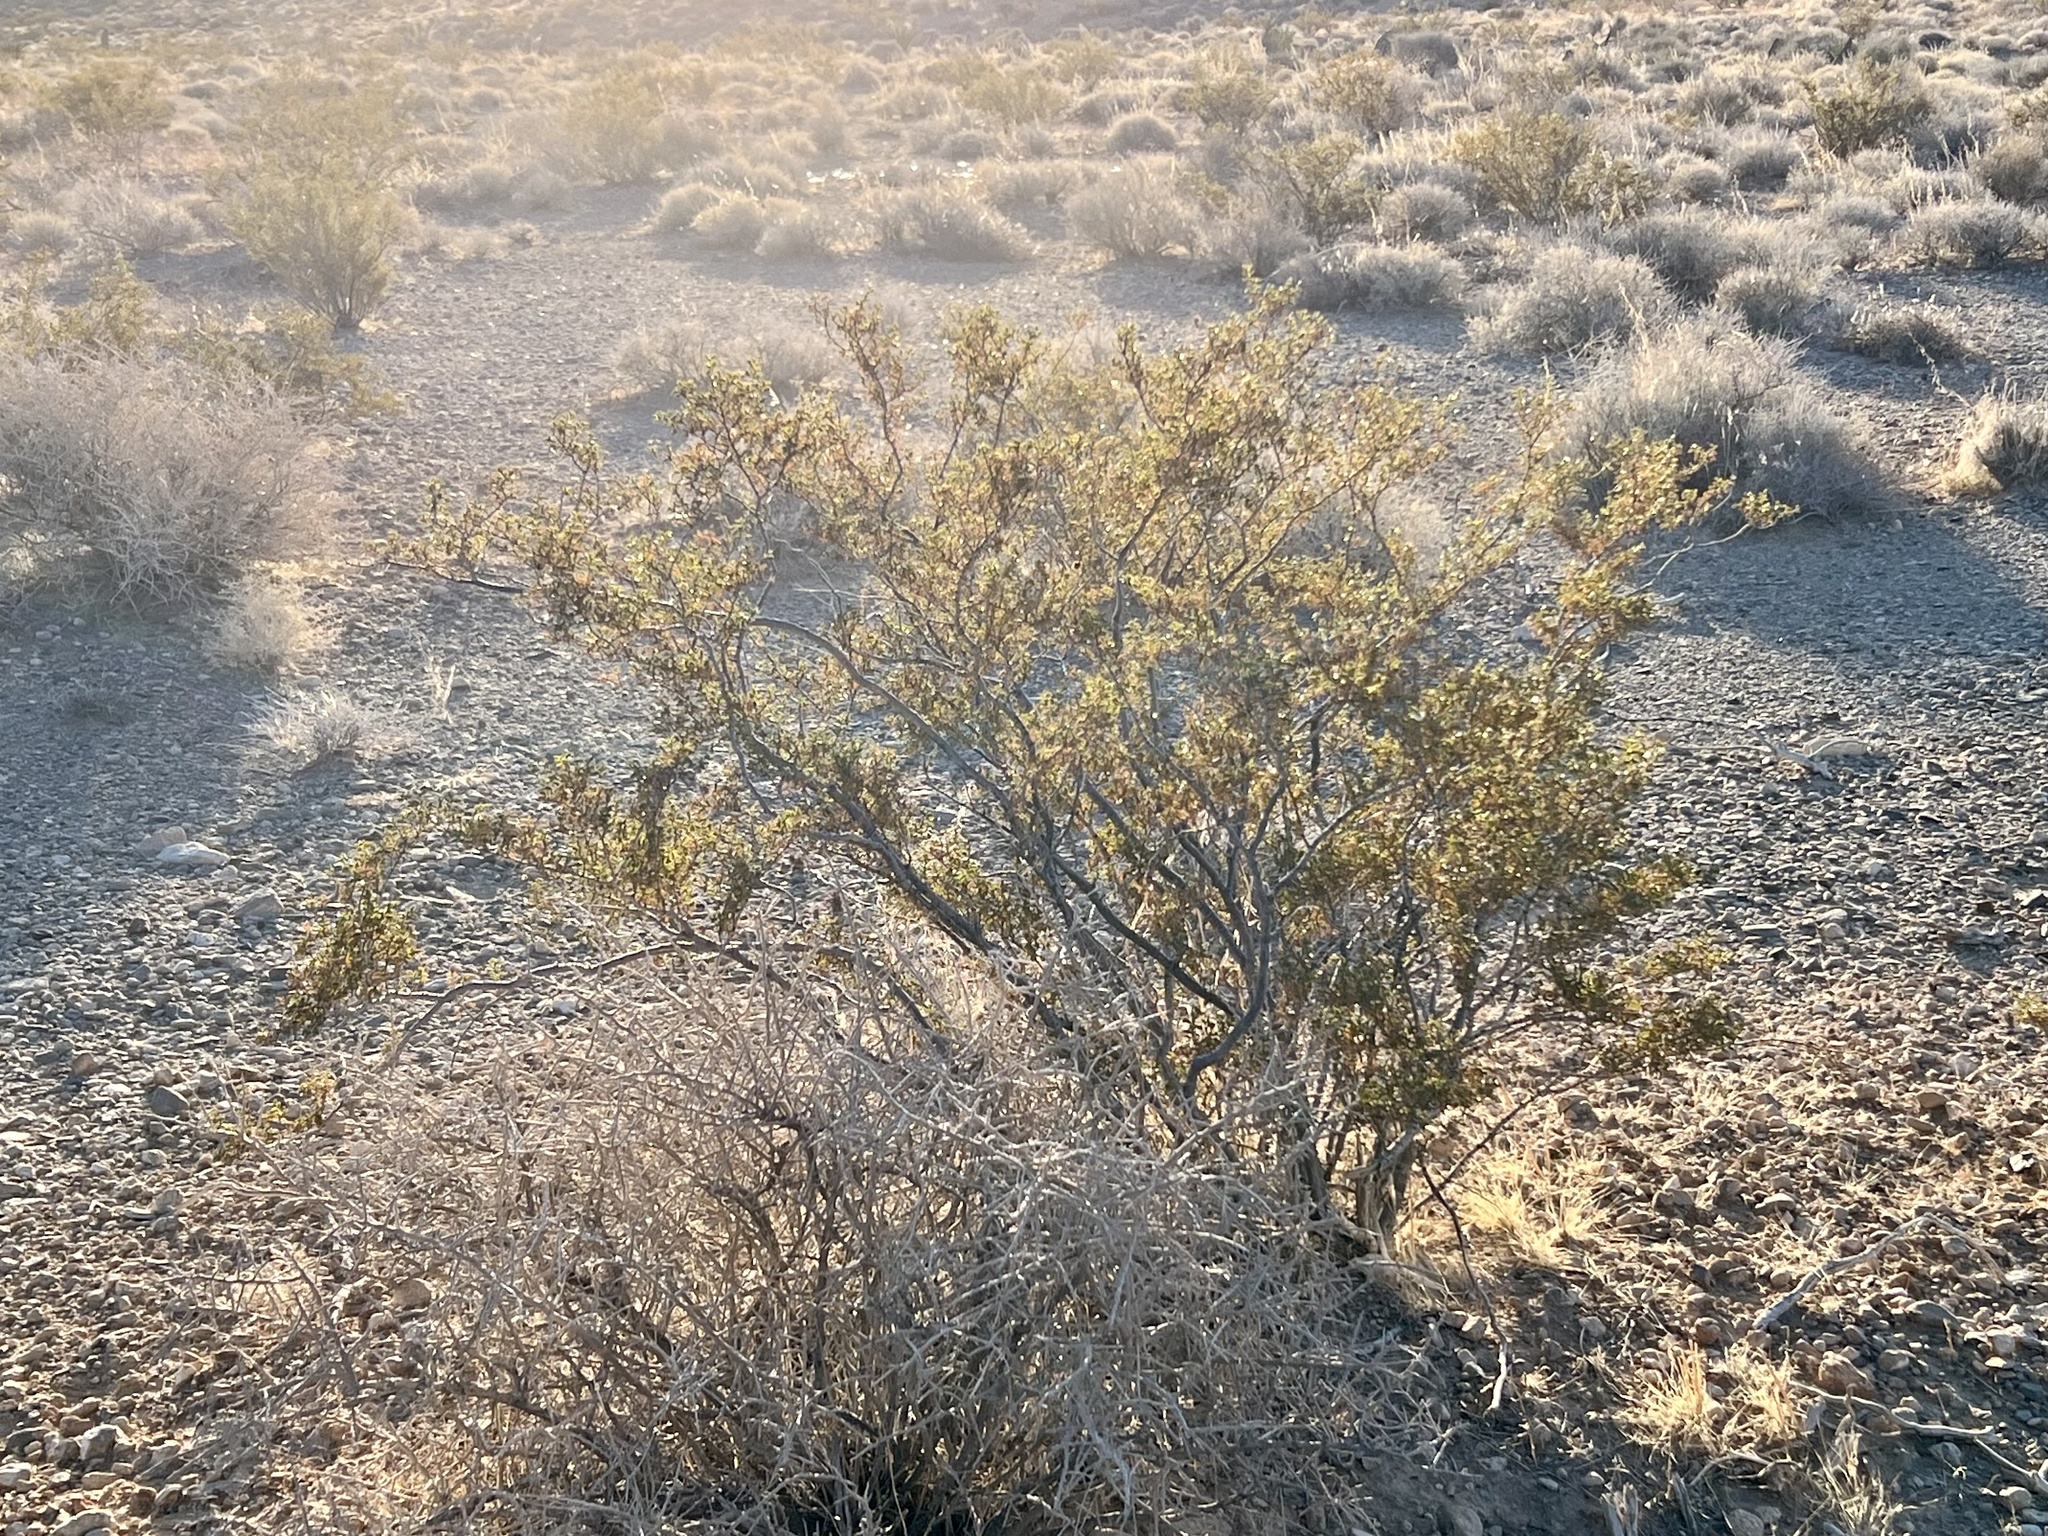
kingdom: Plantae
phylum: Tracheophyta
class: Magnoliopsida
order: Zygophyllales
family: Zygophyllaceae
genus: Larrea
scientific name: Larrea tridentata
